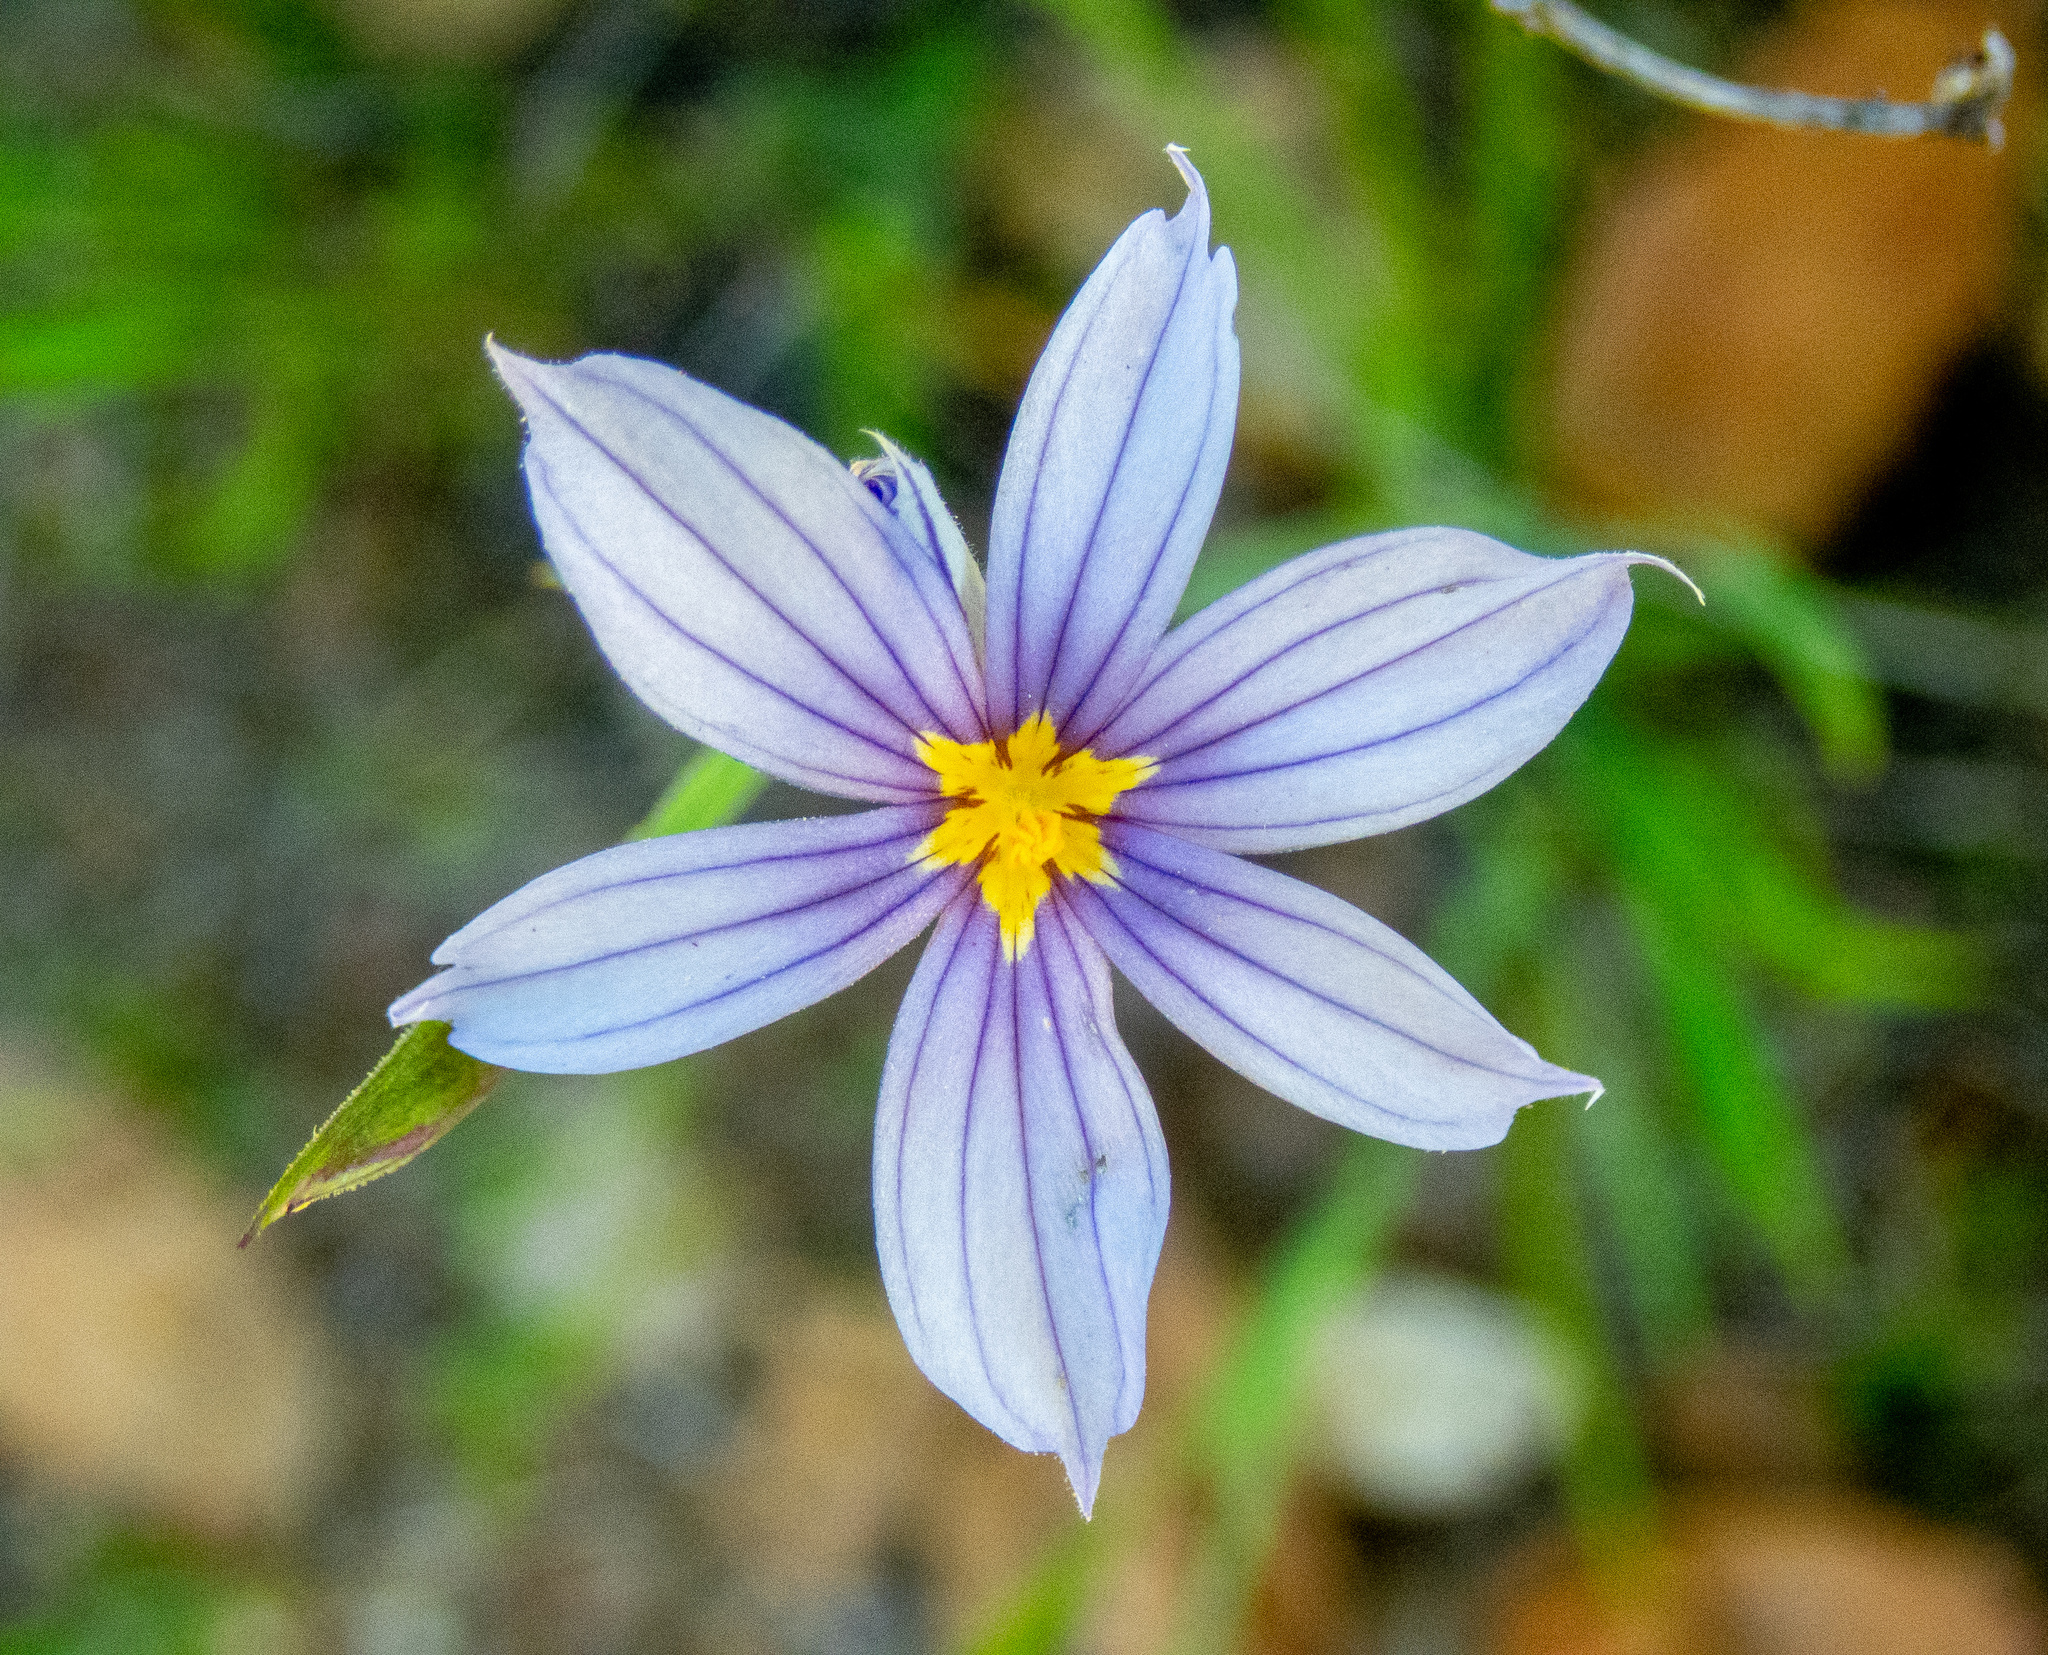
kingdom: Plantae
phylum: Tracheophyta
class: Liliopsida
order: Asparagales
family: Iridaceae
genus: Sisyrinchium
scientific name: Sisyrinchium bellum
